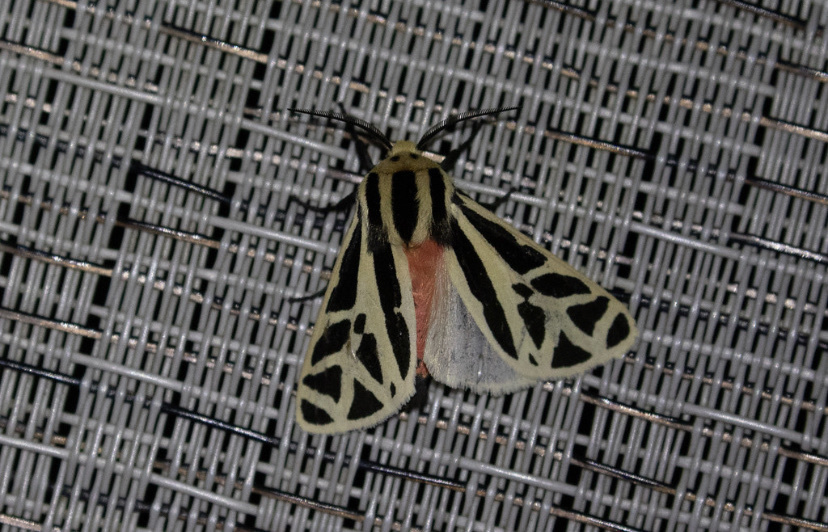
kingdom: Animalia
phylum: Arthropoda
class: Insecta
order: Lepidoptera
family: Erebidae
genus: Apantesis
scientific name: Apantesis
